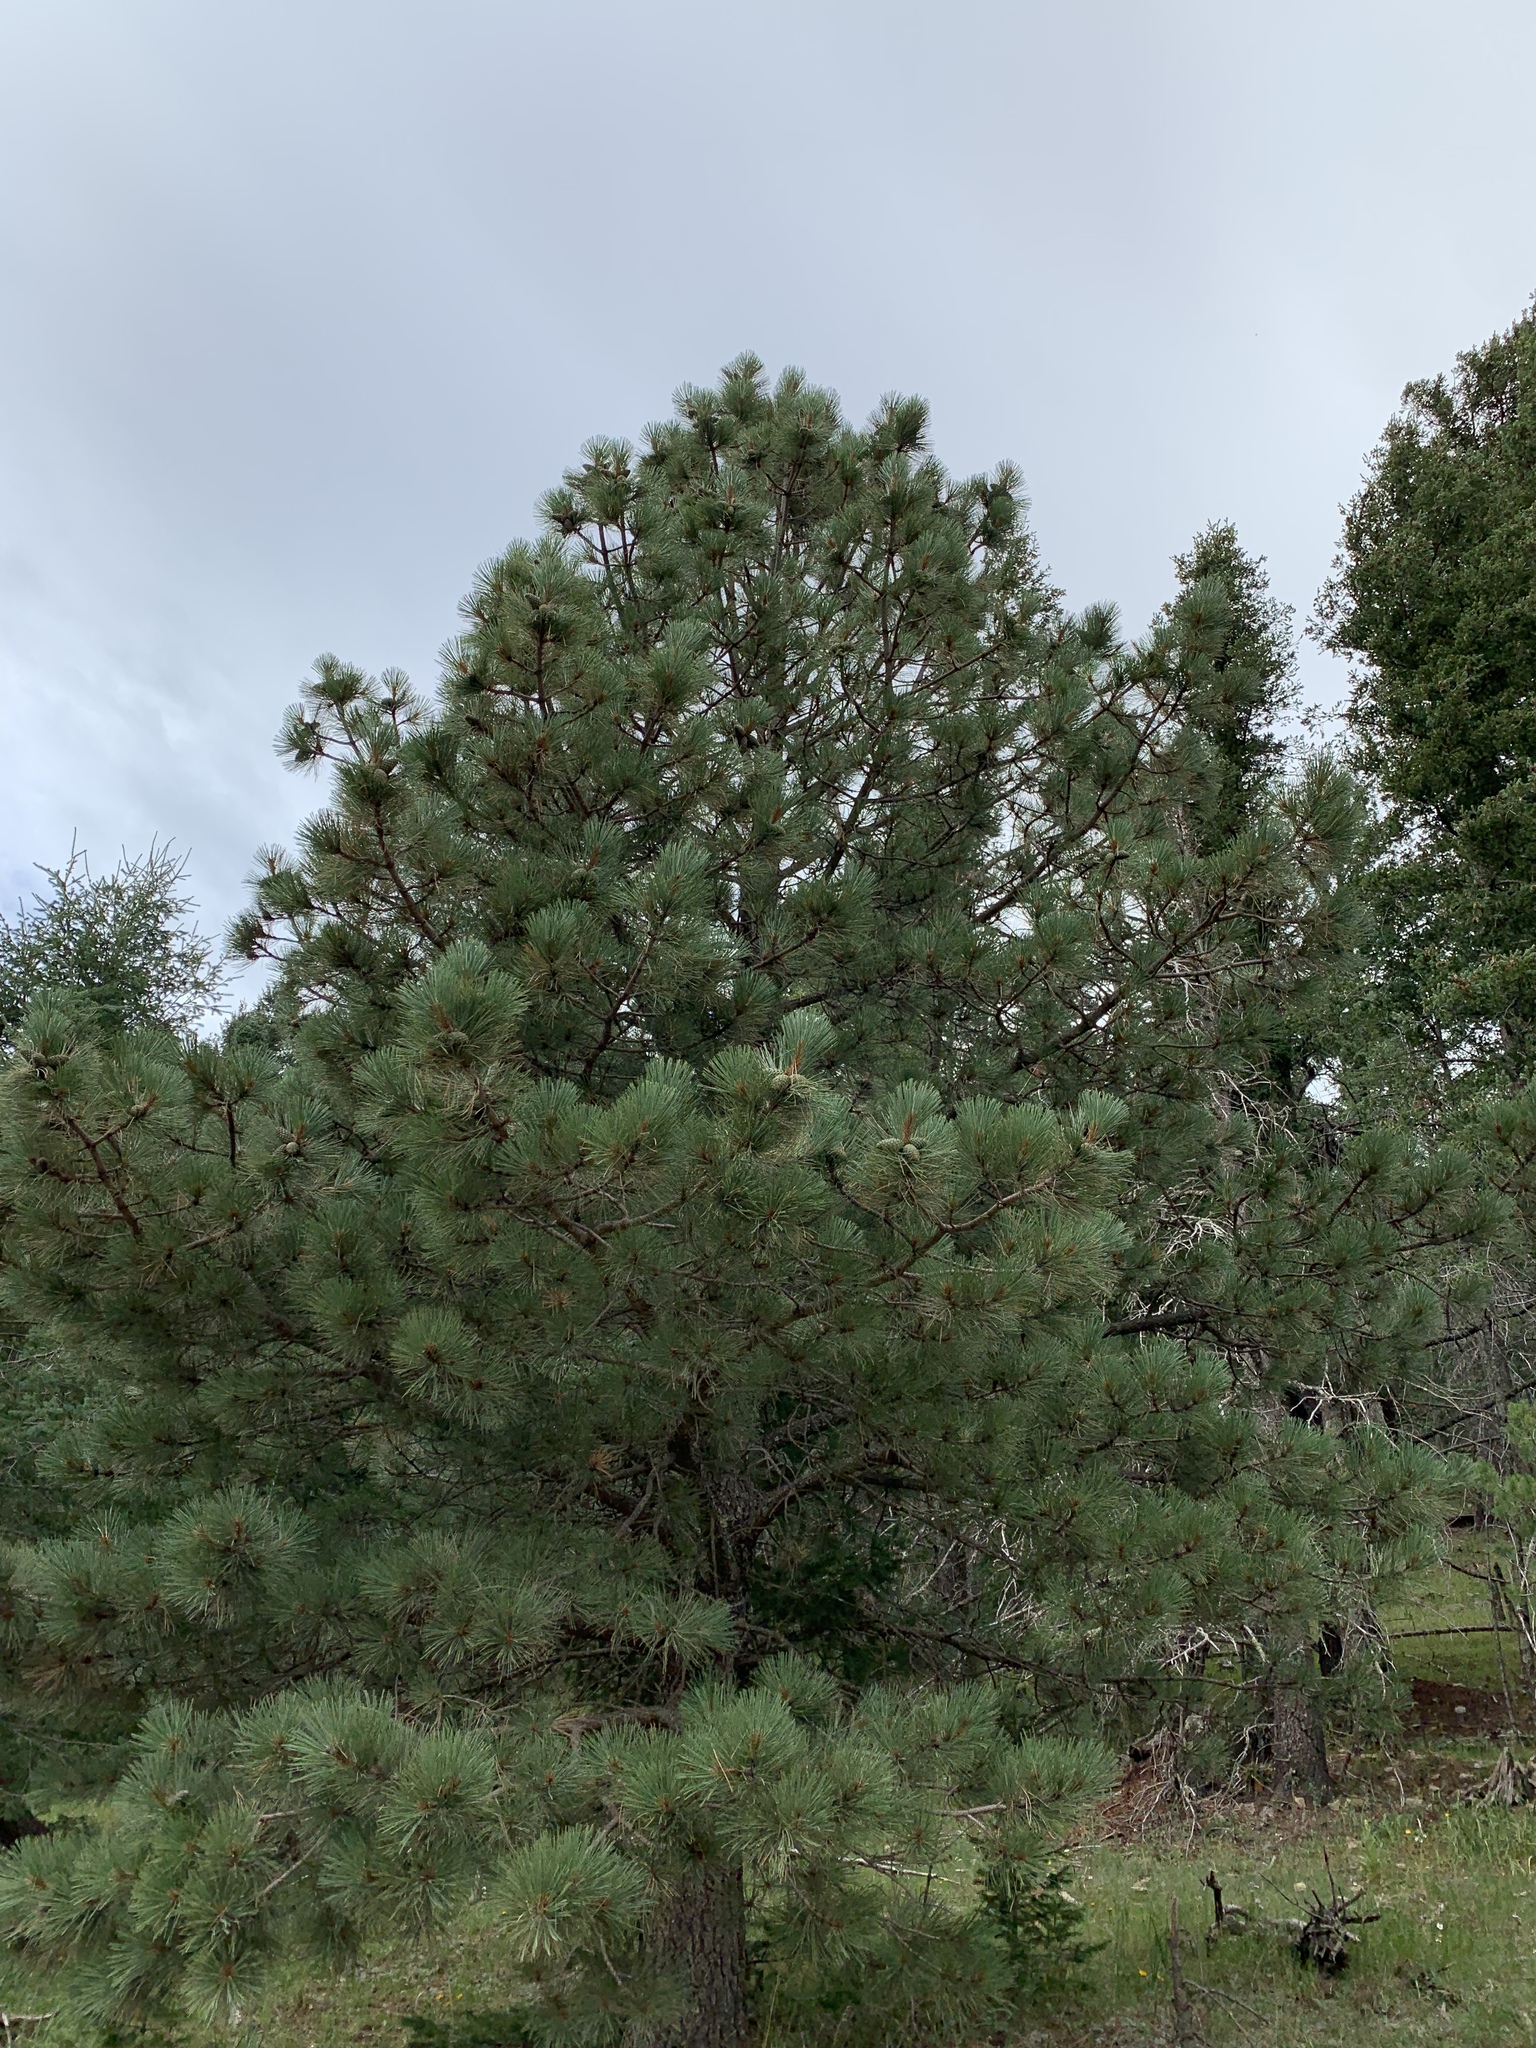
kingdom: Plantae
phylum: Tracheophyta
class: Pinopsida
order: Pinales
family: Pinaceae
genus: Pinus
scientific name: Pinus ponderosa
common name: Western yellow-pine
